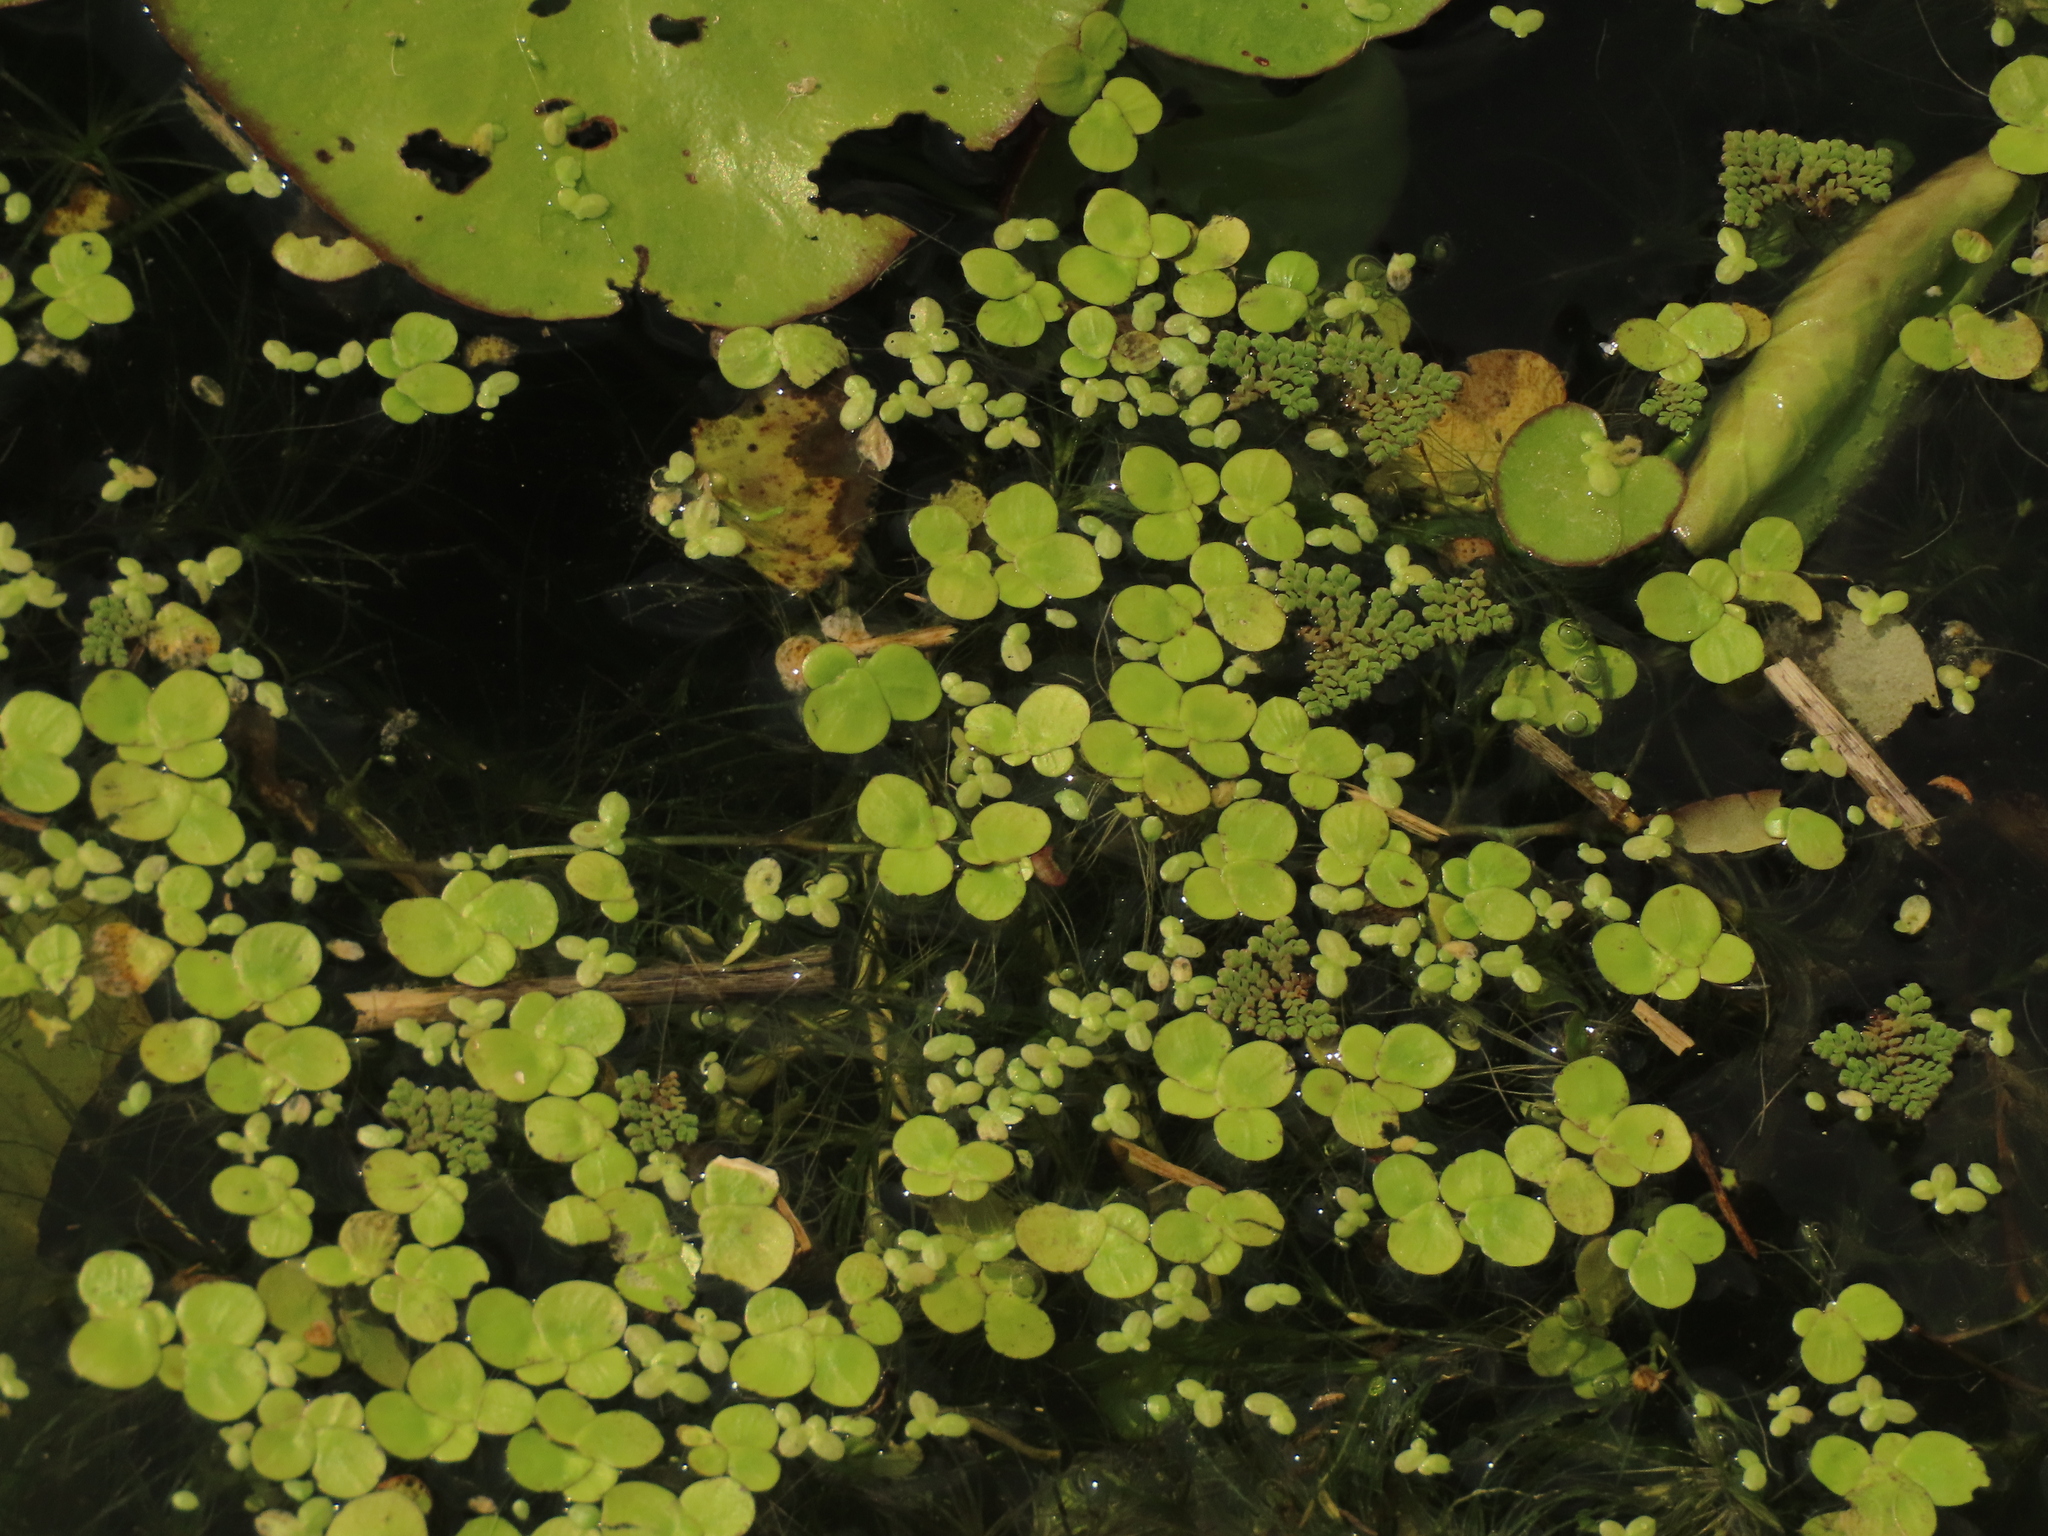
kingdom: Plantae
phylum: Tracheophyta
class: Liliopsida
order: Alismatales
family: Araceae
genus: Lemna
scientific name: Lemna aequinoctialis
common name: Duckweed
